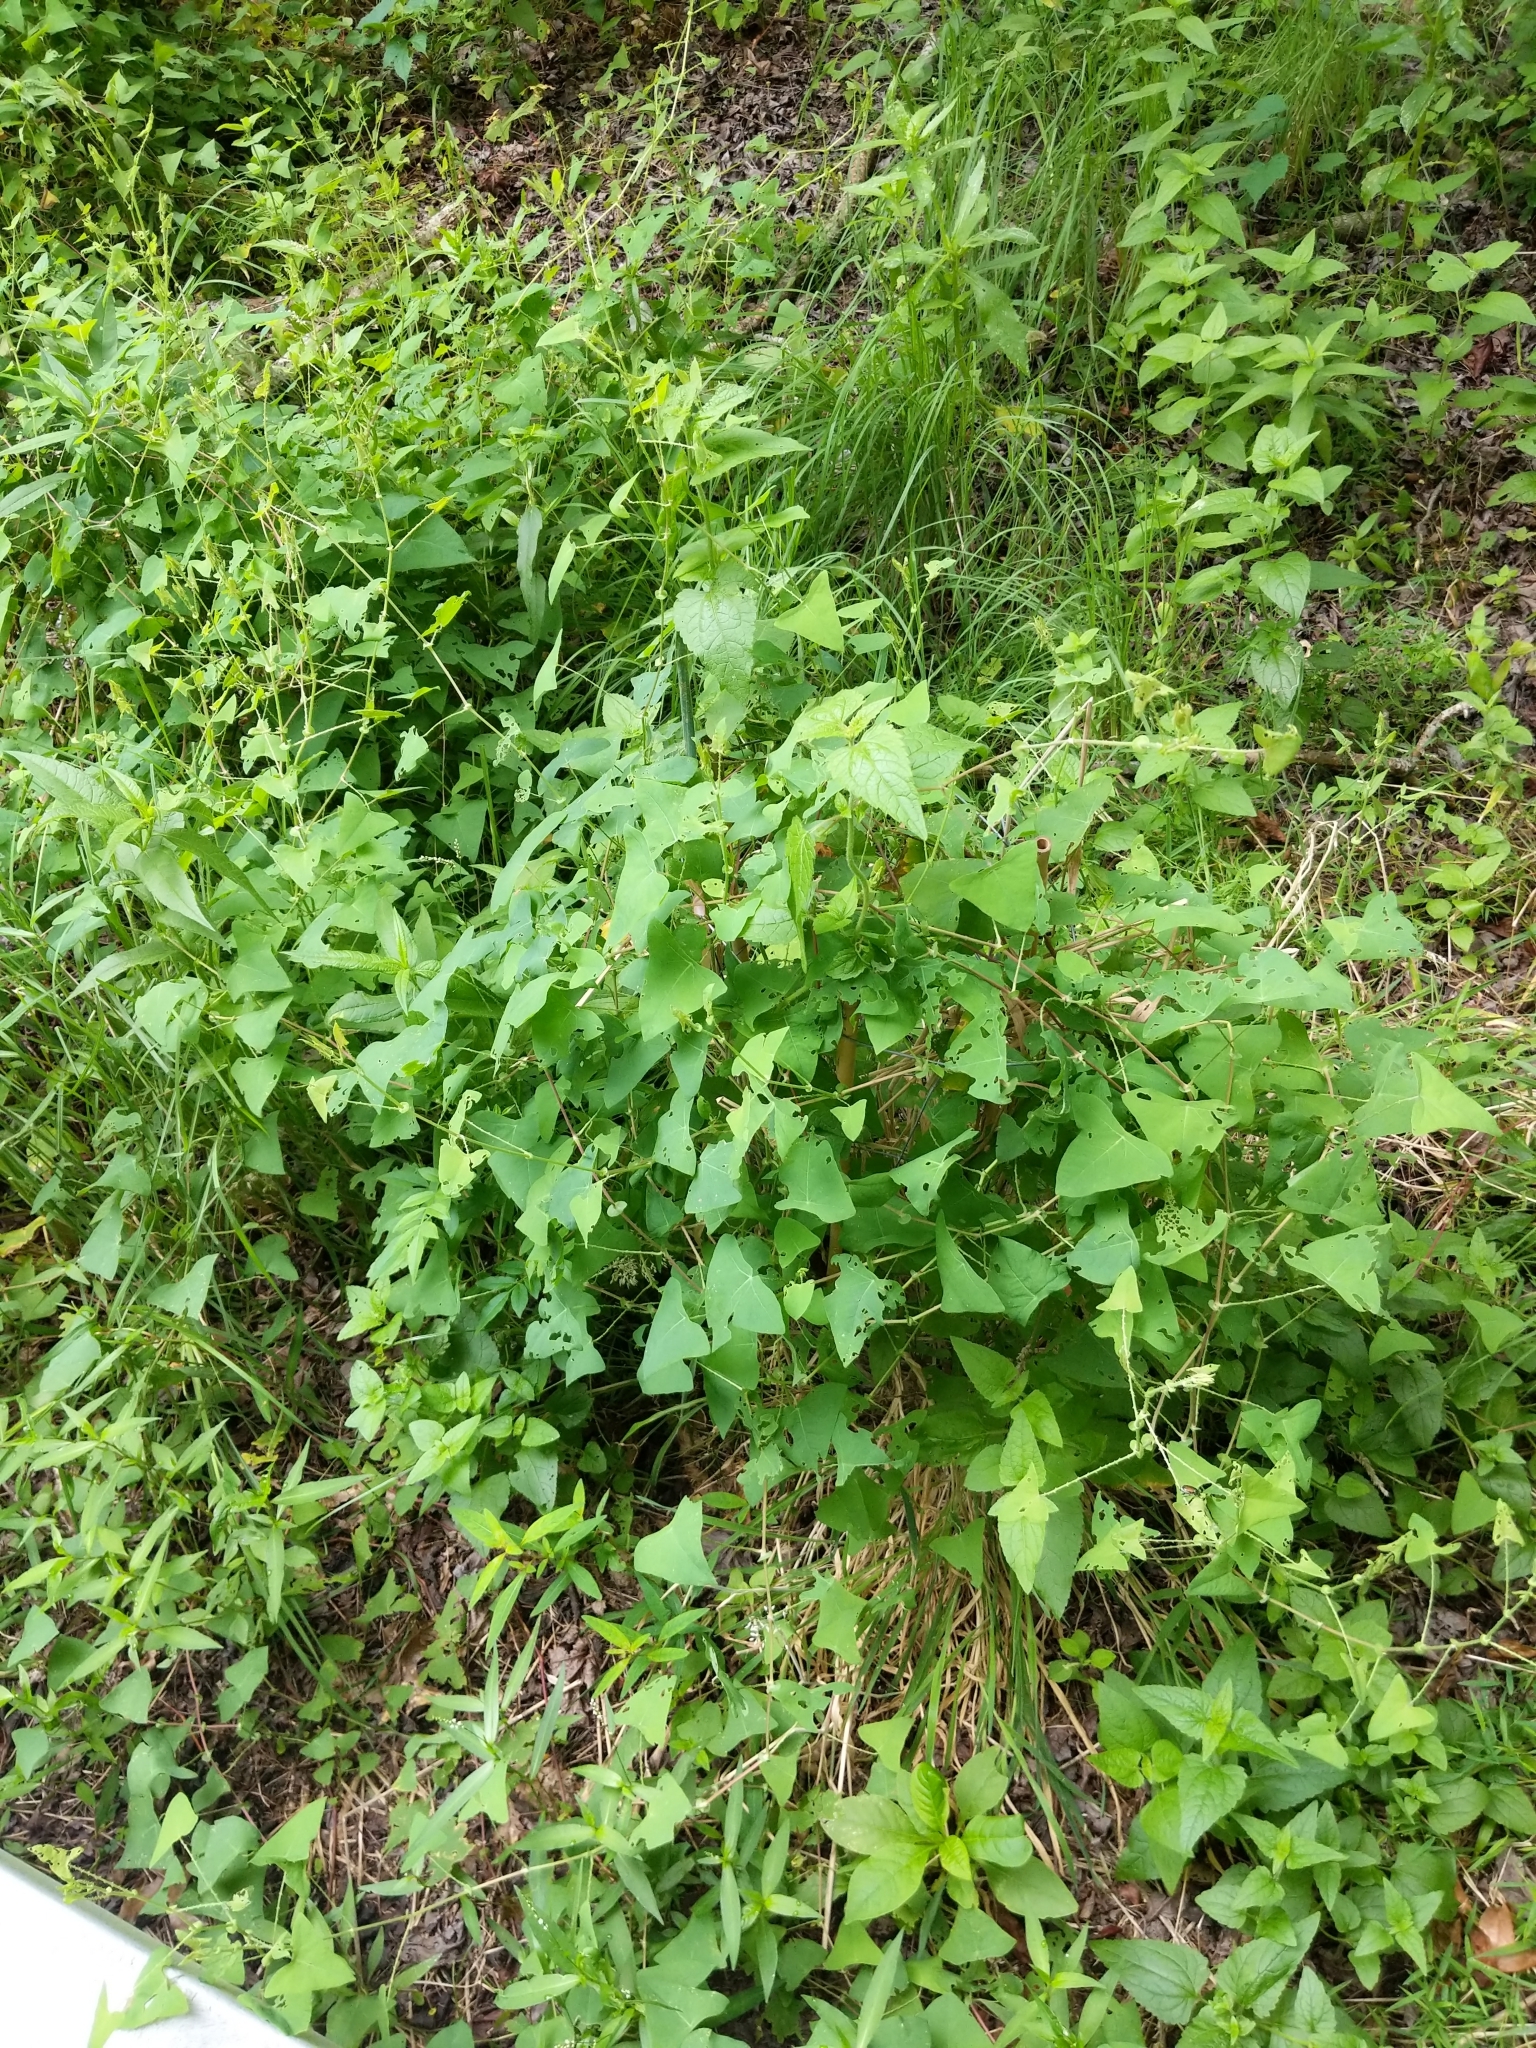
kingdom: Plantae
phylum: Tracheophyta
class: Magnoliopsida
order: Caryophyllales
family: Polygonaceae
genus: Persicaria
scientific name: Persicaria perfoliata
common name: Asiatic tearthumb
